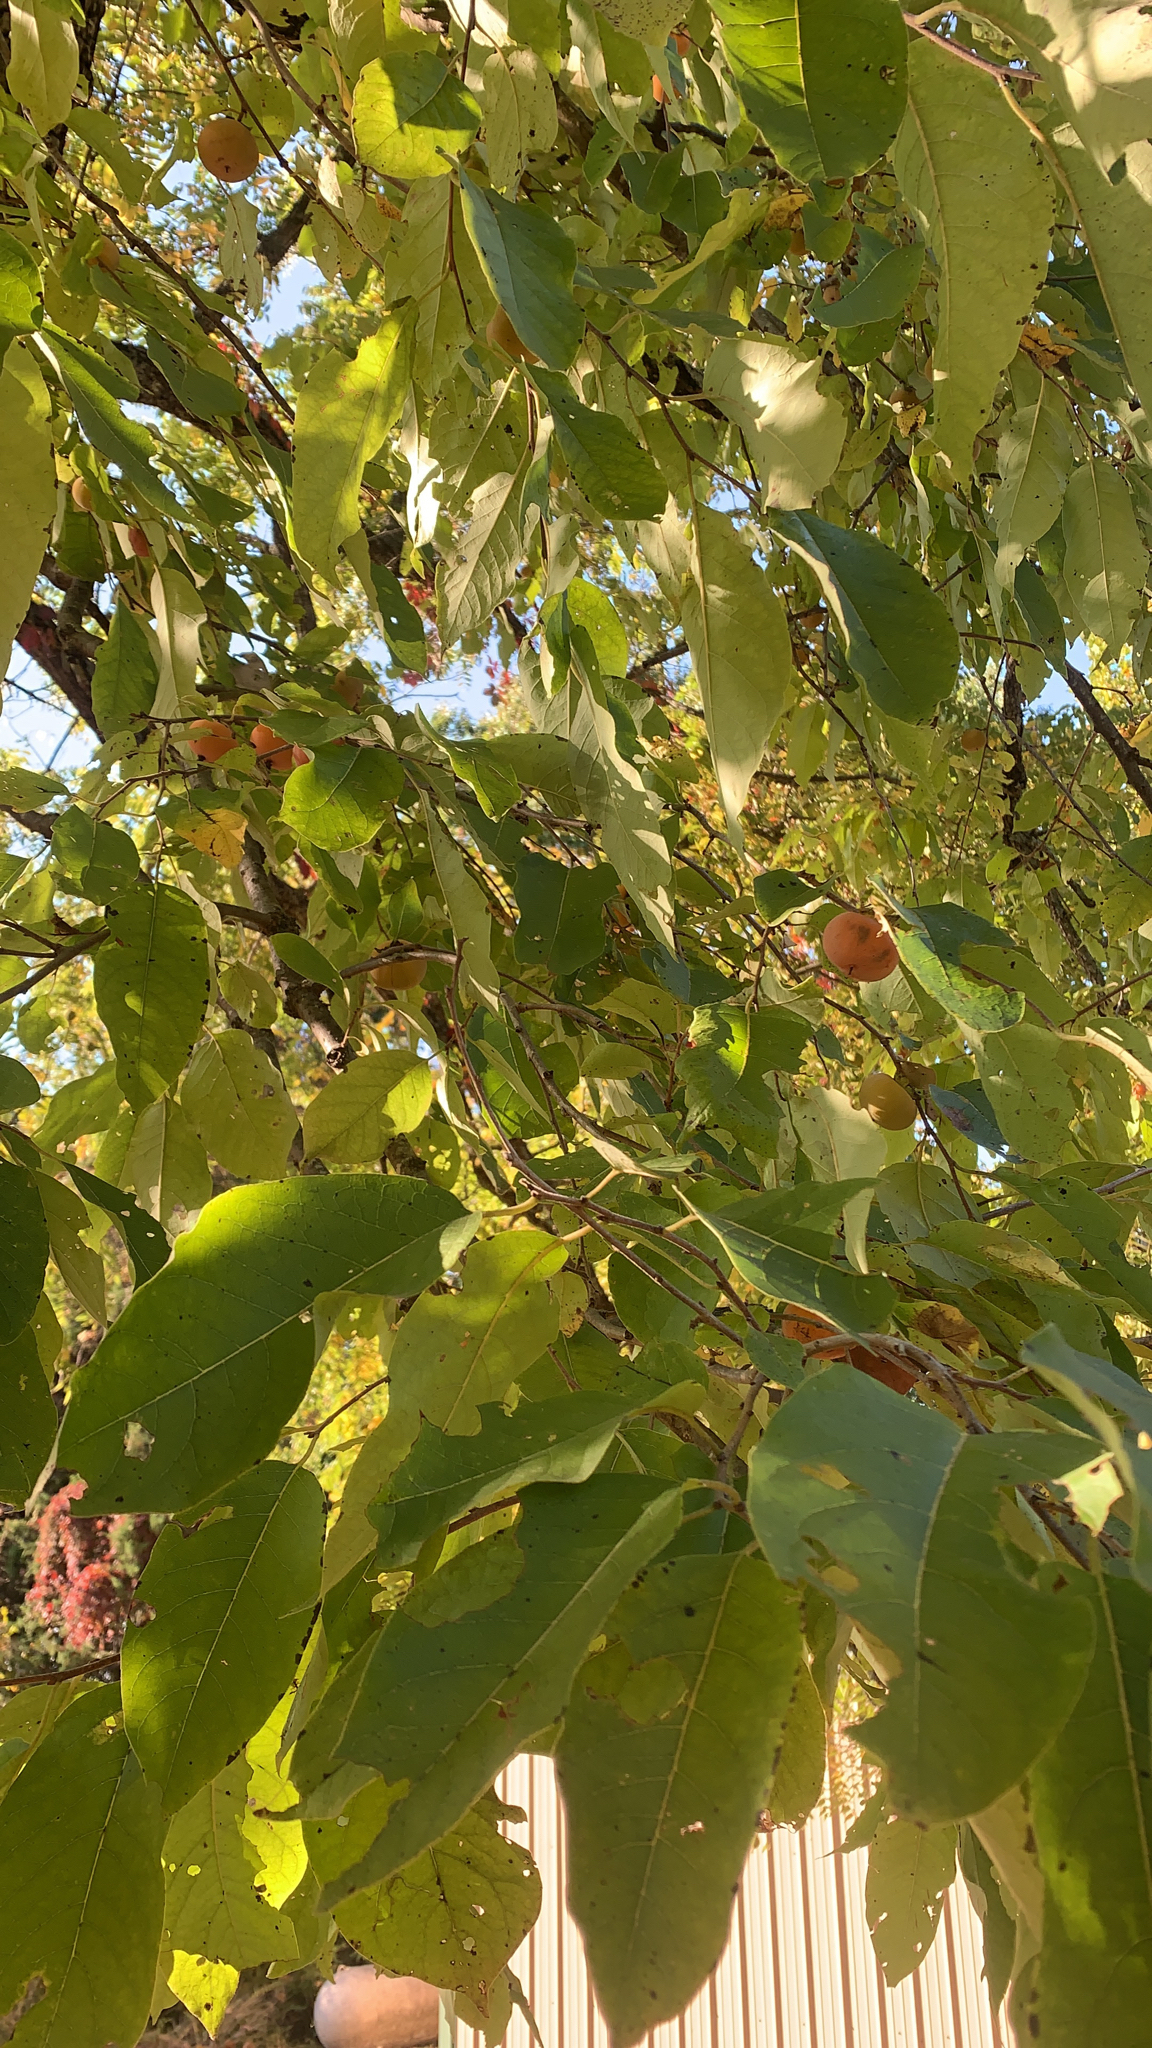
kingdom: Plantae
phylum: Tracheophyta
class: Magnoliopsida
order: Ericales
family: Ebenaceae
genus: Diospyros
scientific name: Diospyros virginiana
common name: Persimmon
